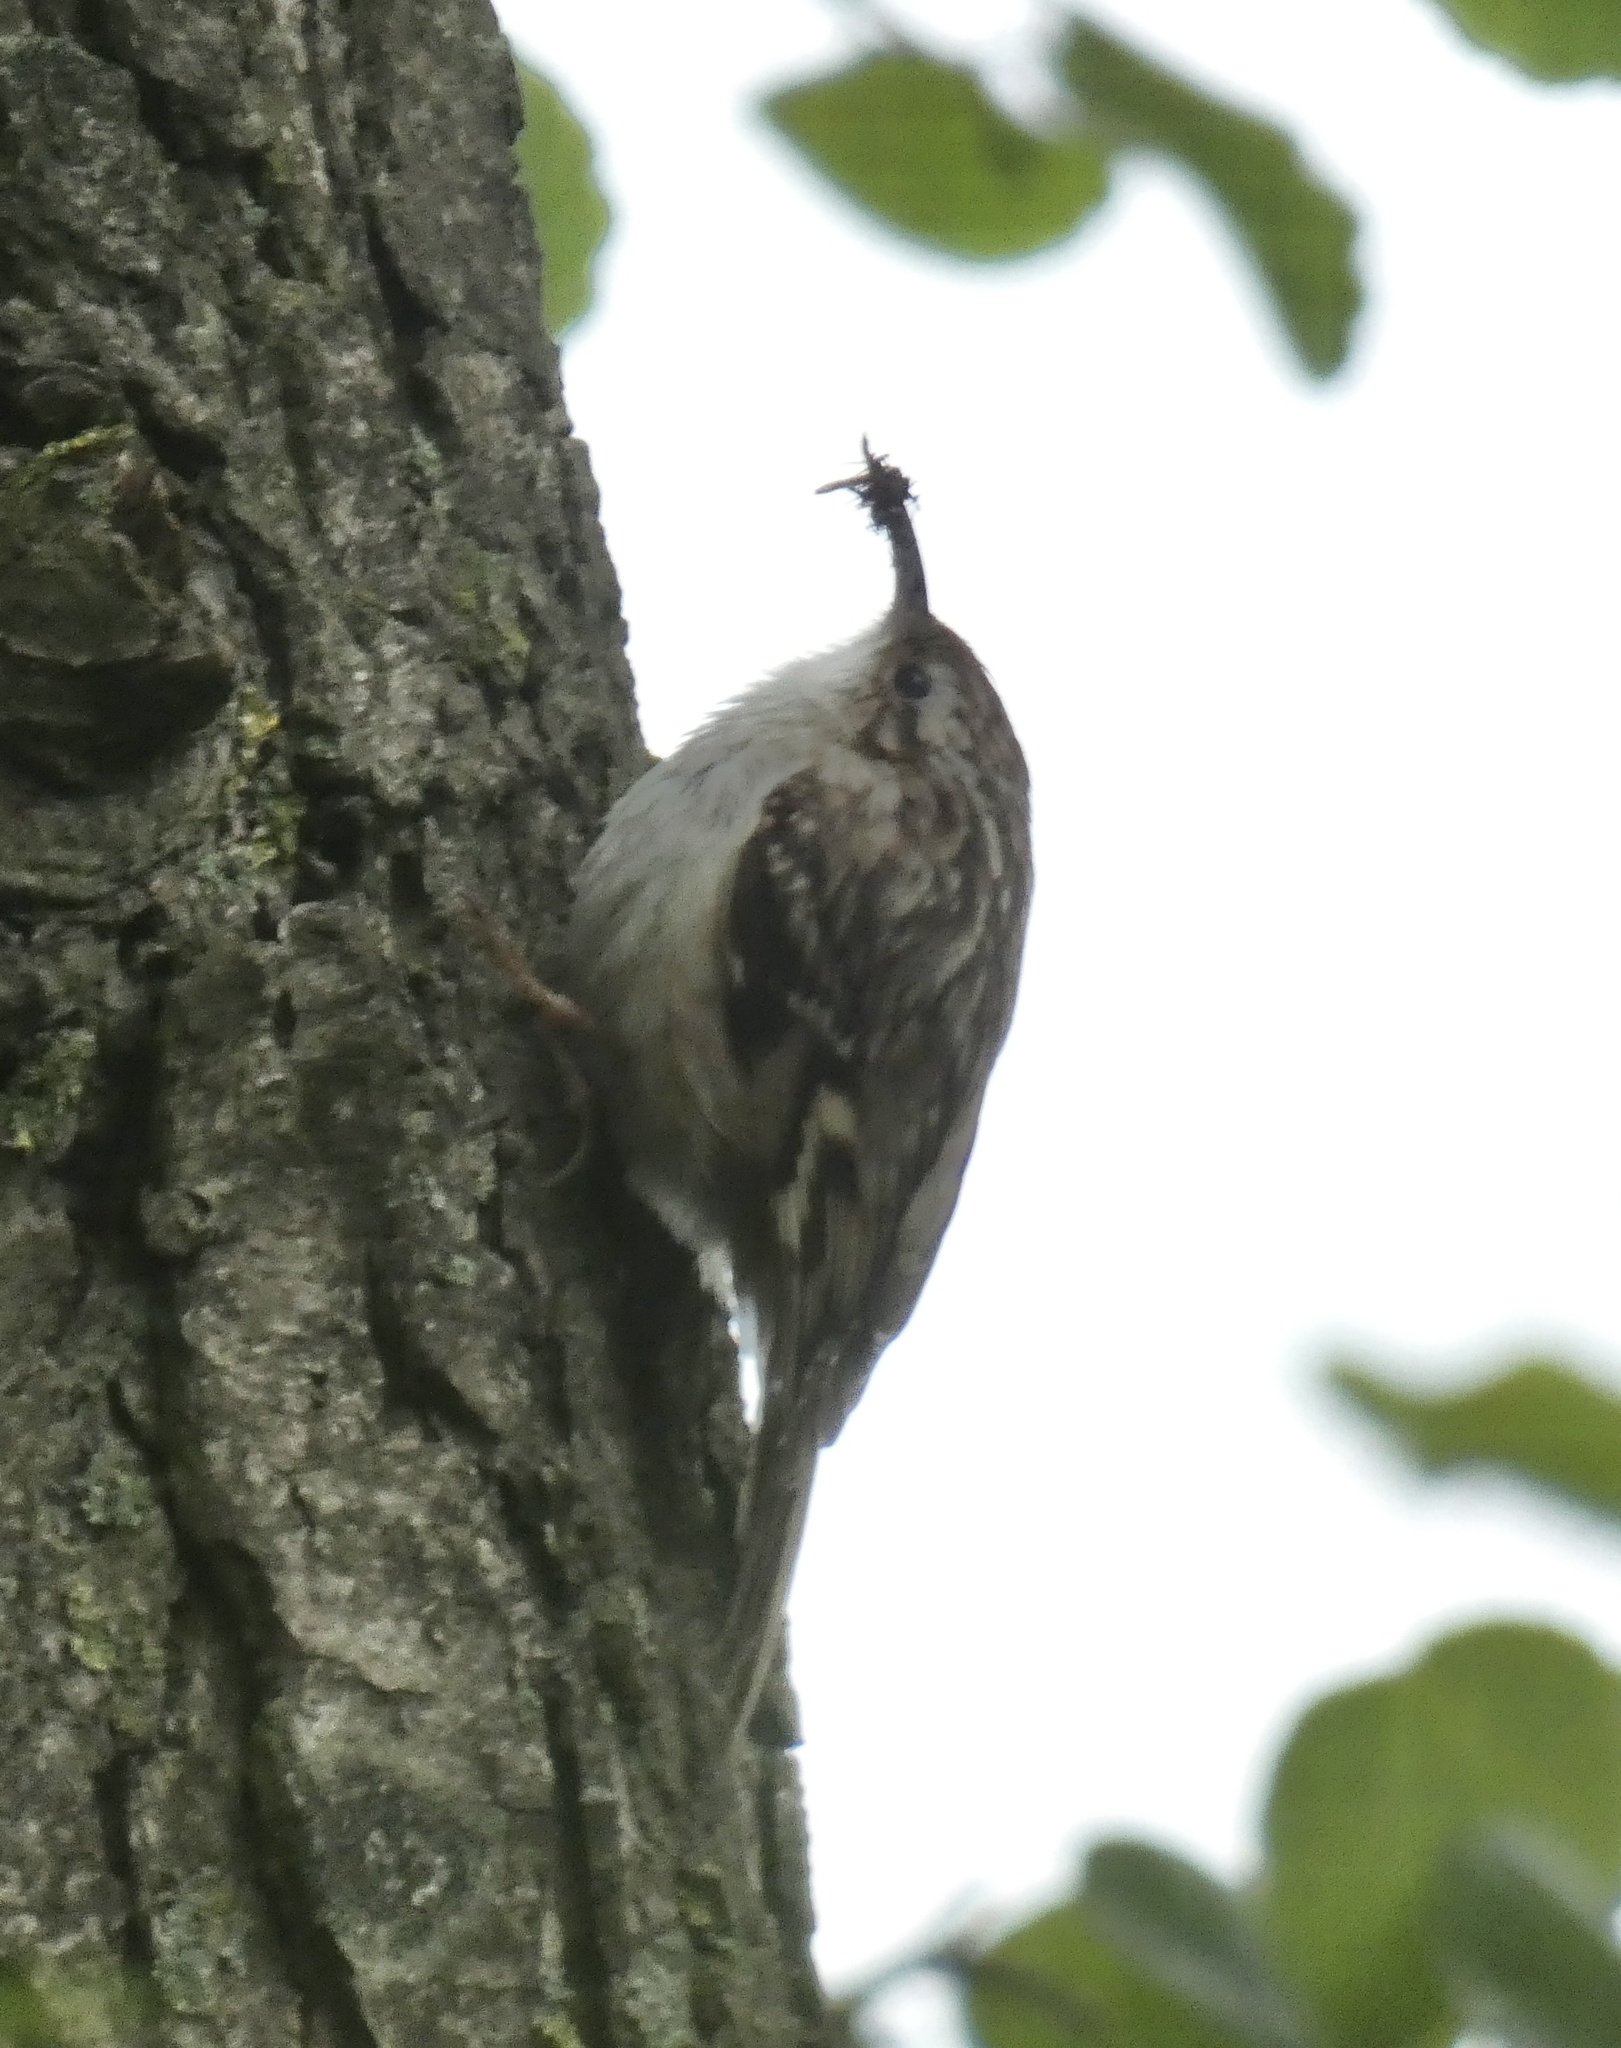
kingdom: Animalia
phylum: Chordata
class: Aves
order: Passeriformes
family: Certhiidae
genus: Certhia
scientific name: Certhia brachydactyla
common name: Short-toed treecreeper
